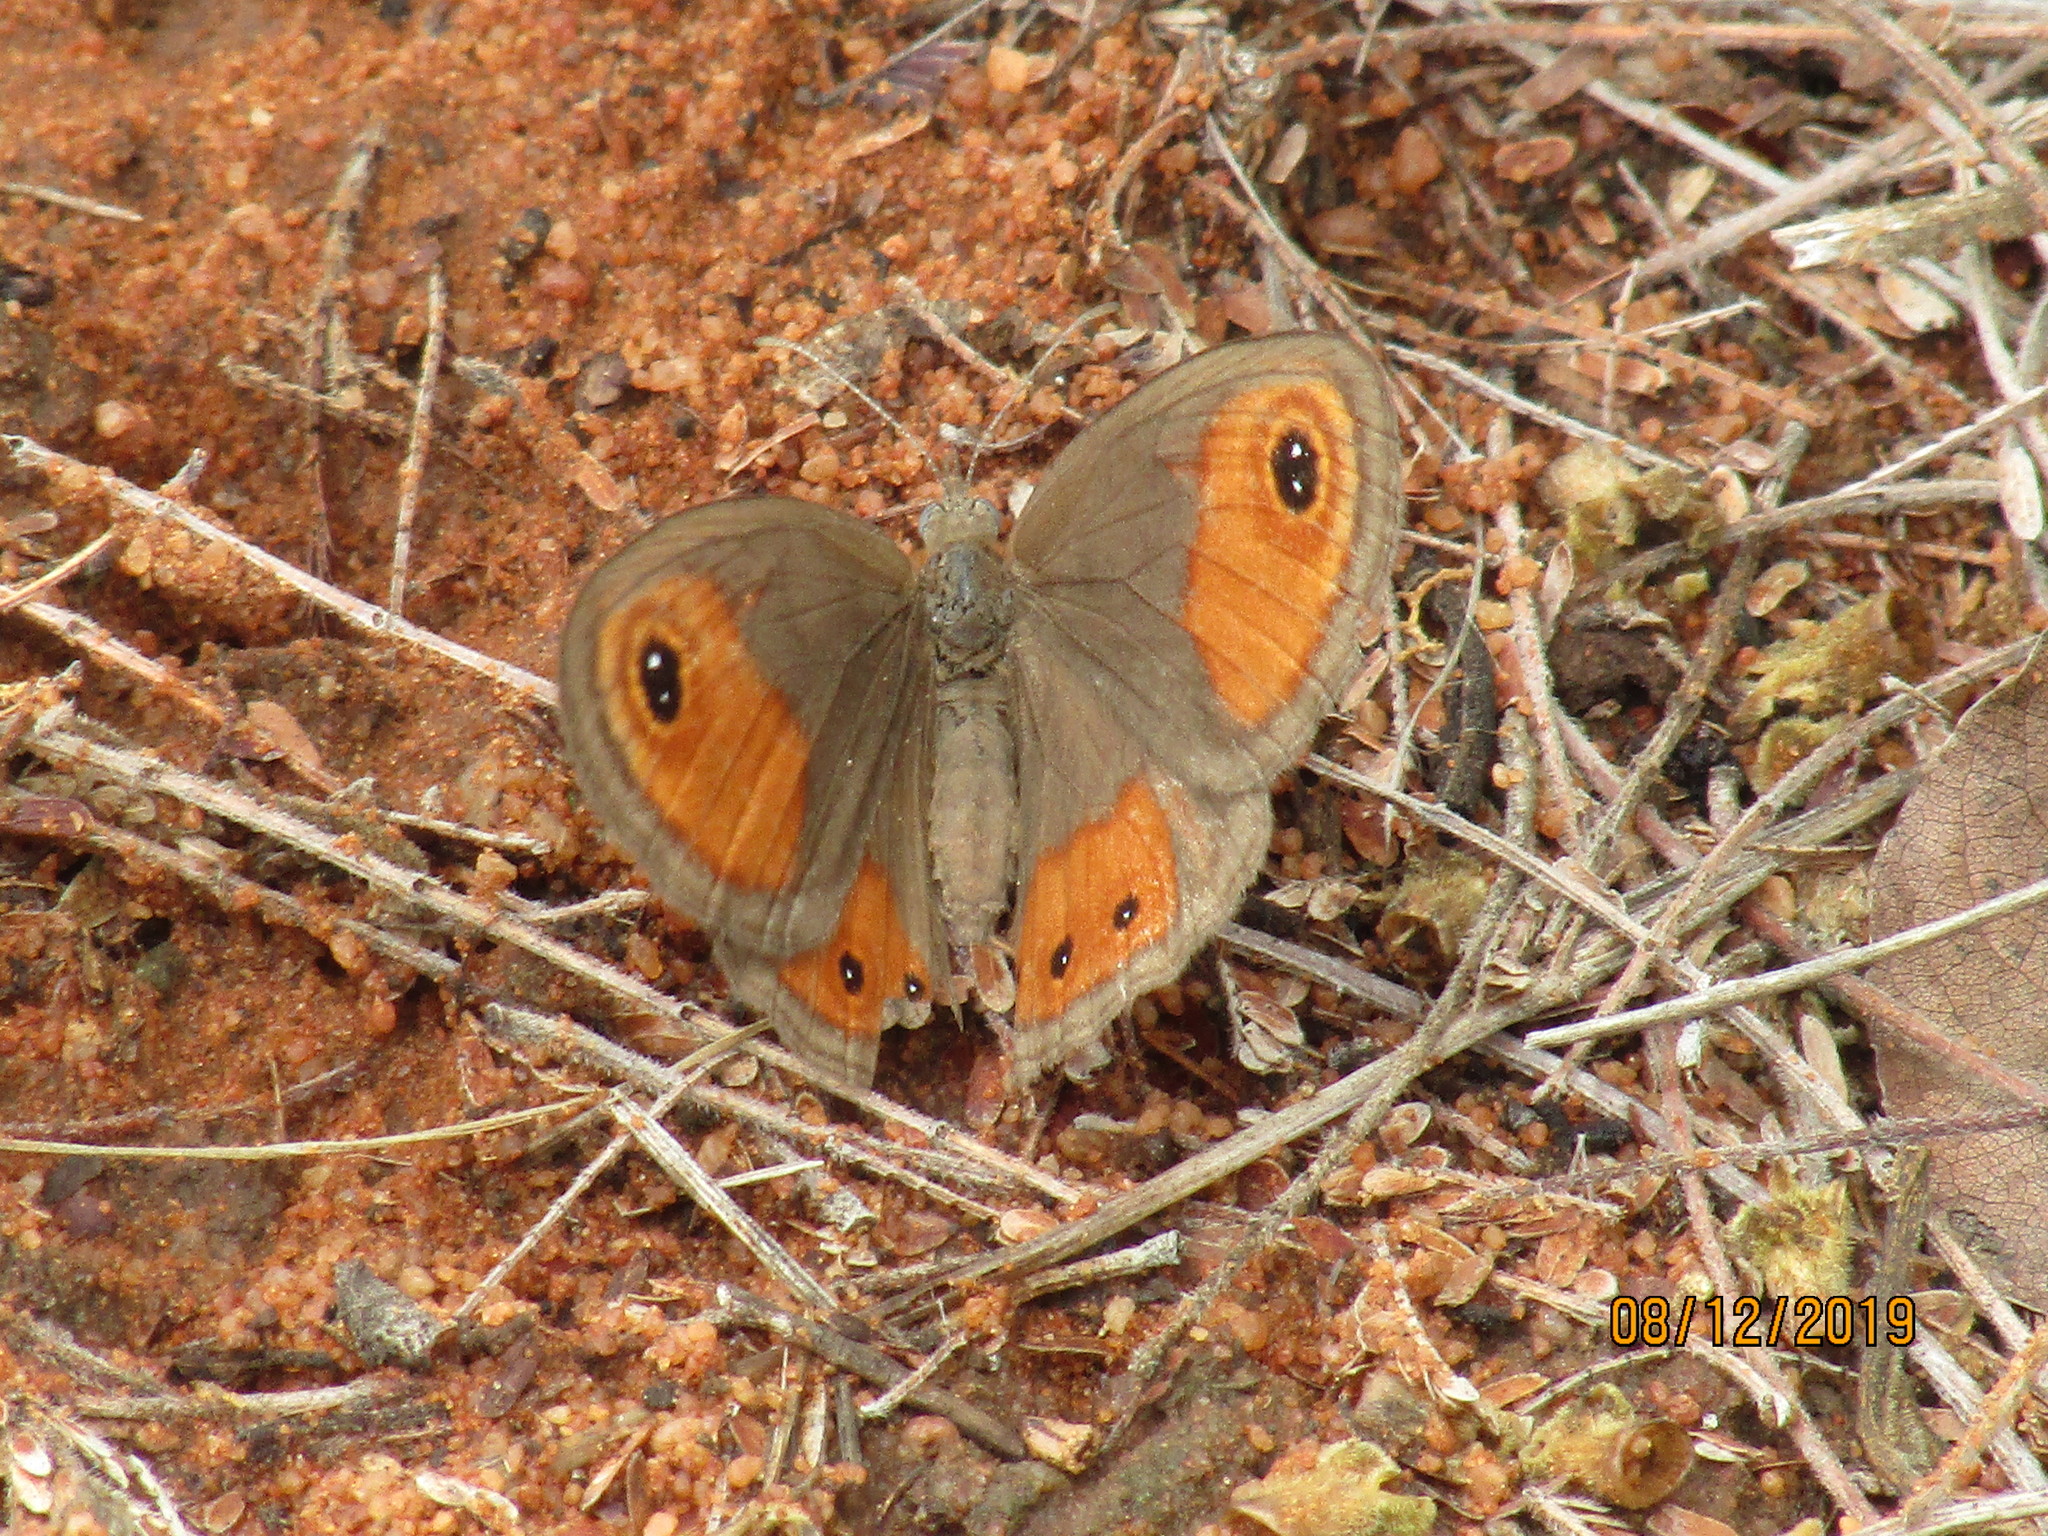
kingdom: Animalia
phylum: Arthropoda
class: Insecta
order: Lepidoptera
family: Nymphalidae
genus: Coenyropsis
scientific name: Coenyropsis natalii
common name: Natal brown
